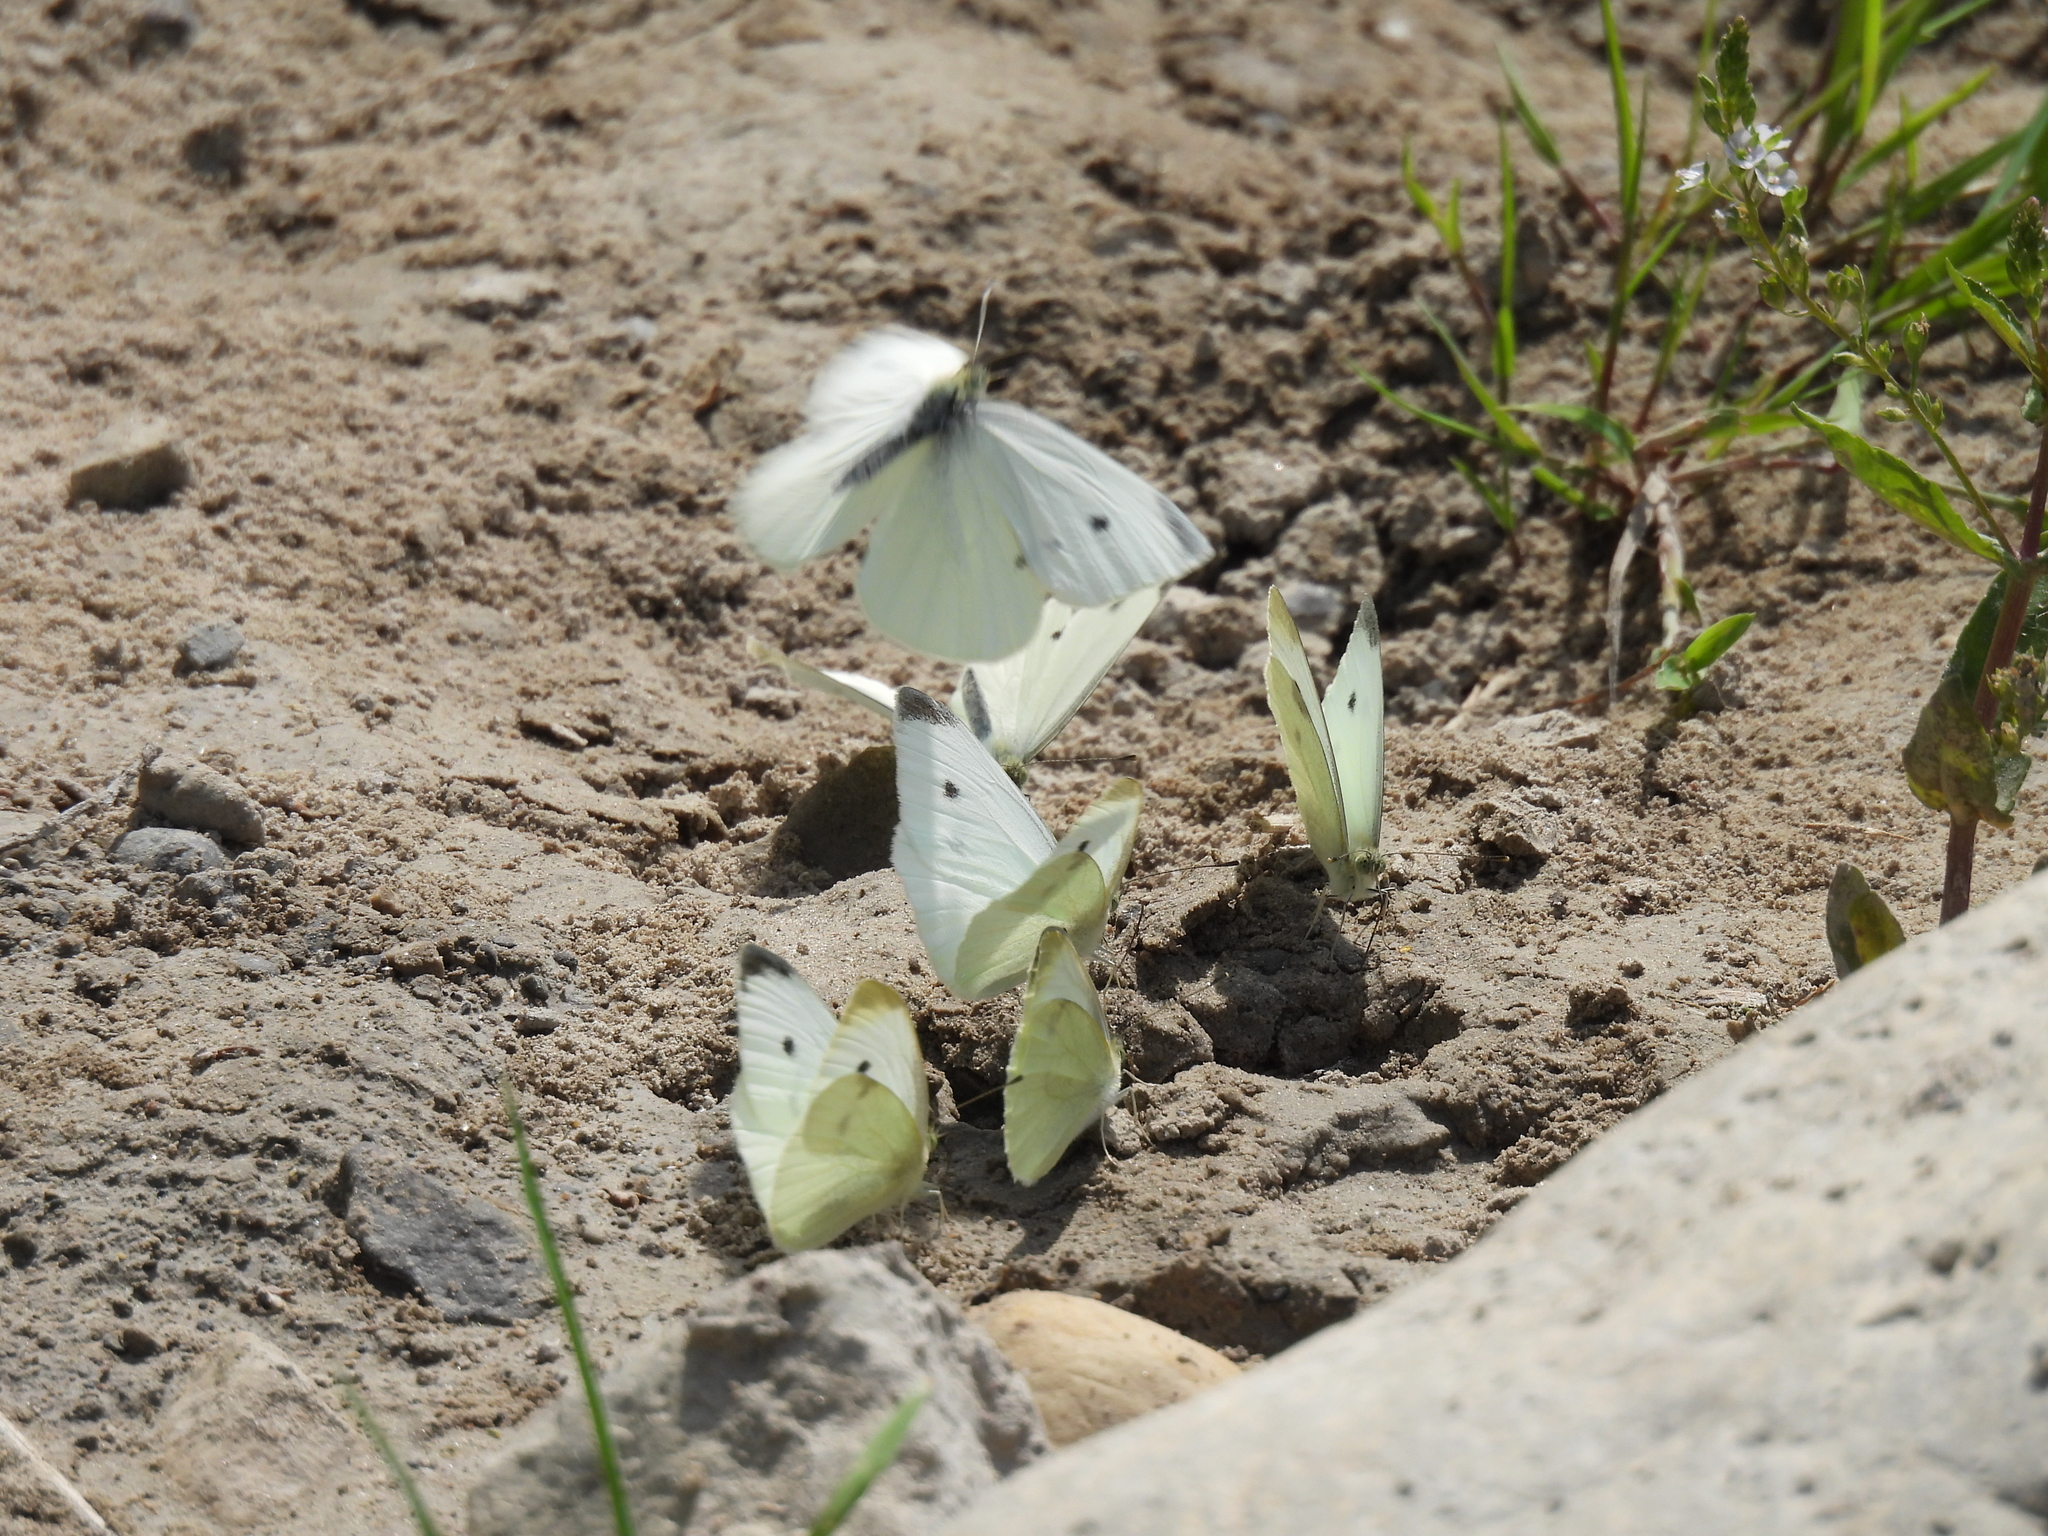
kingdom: Animalia
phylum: Arthropoda
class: Insecta
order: Lepidoptera
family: Pieridae
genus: Pieris
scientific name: Pieris rapae
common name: Small white
